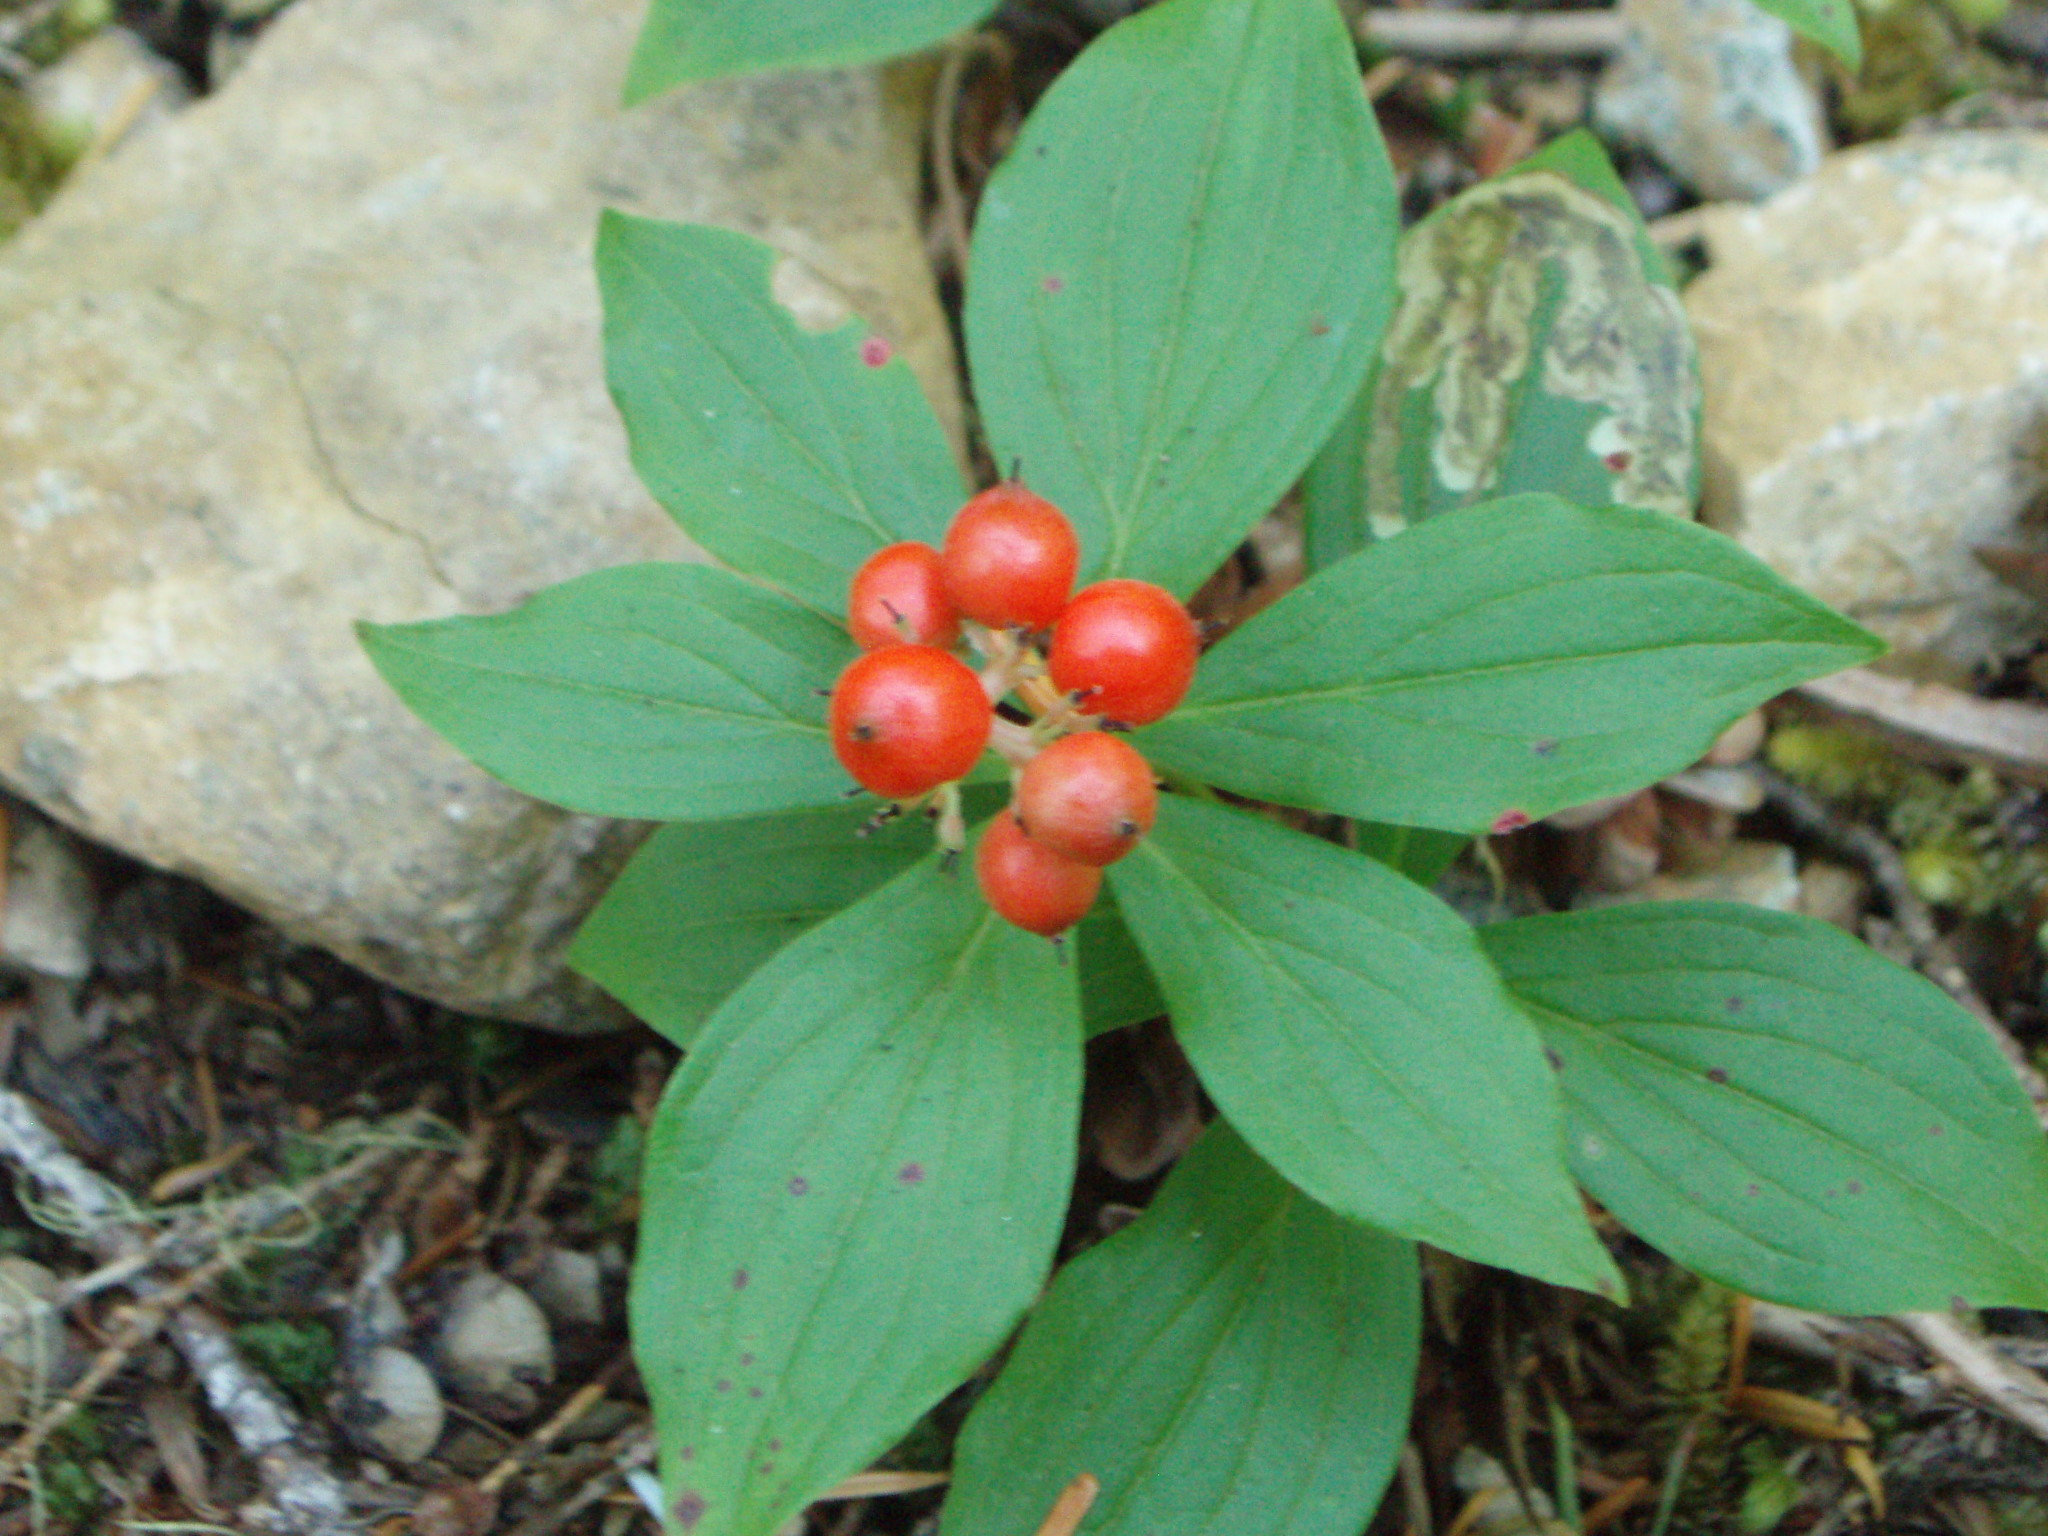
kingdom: Plantae
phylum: Tracheophyta
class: Magnoliopsida
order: Cornales
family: Cornaceae
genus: Cornus
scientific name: Cornus unalaschkensis
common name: Alaska bunchberry
